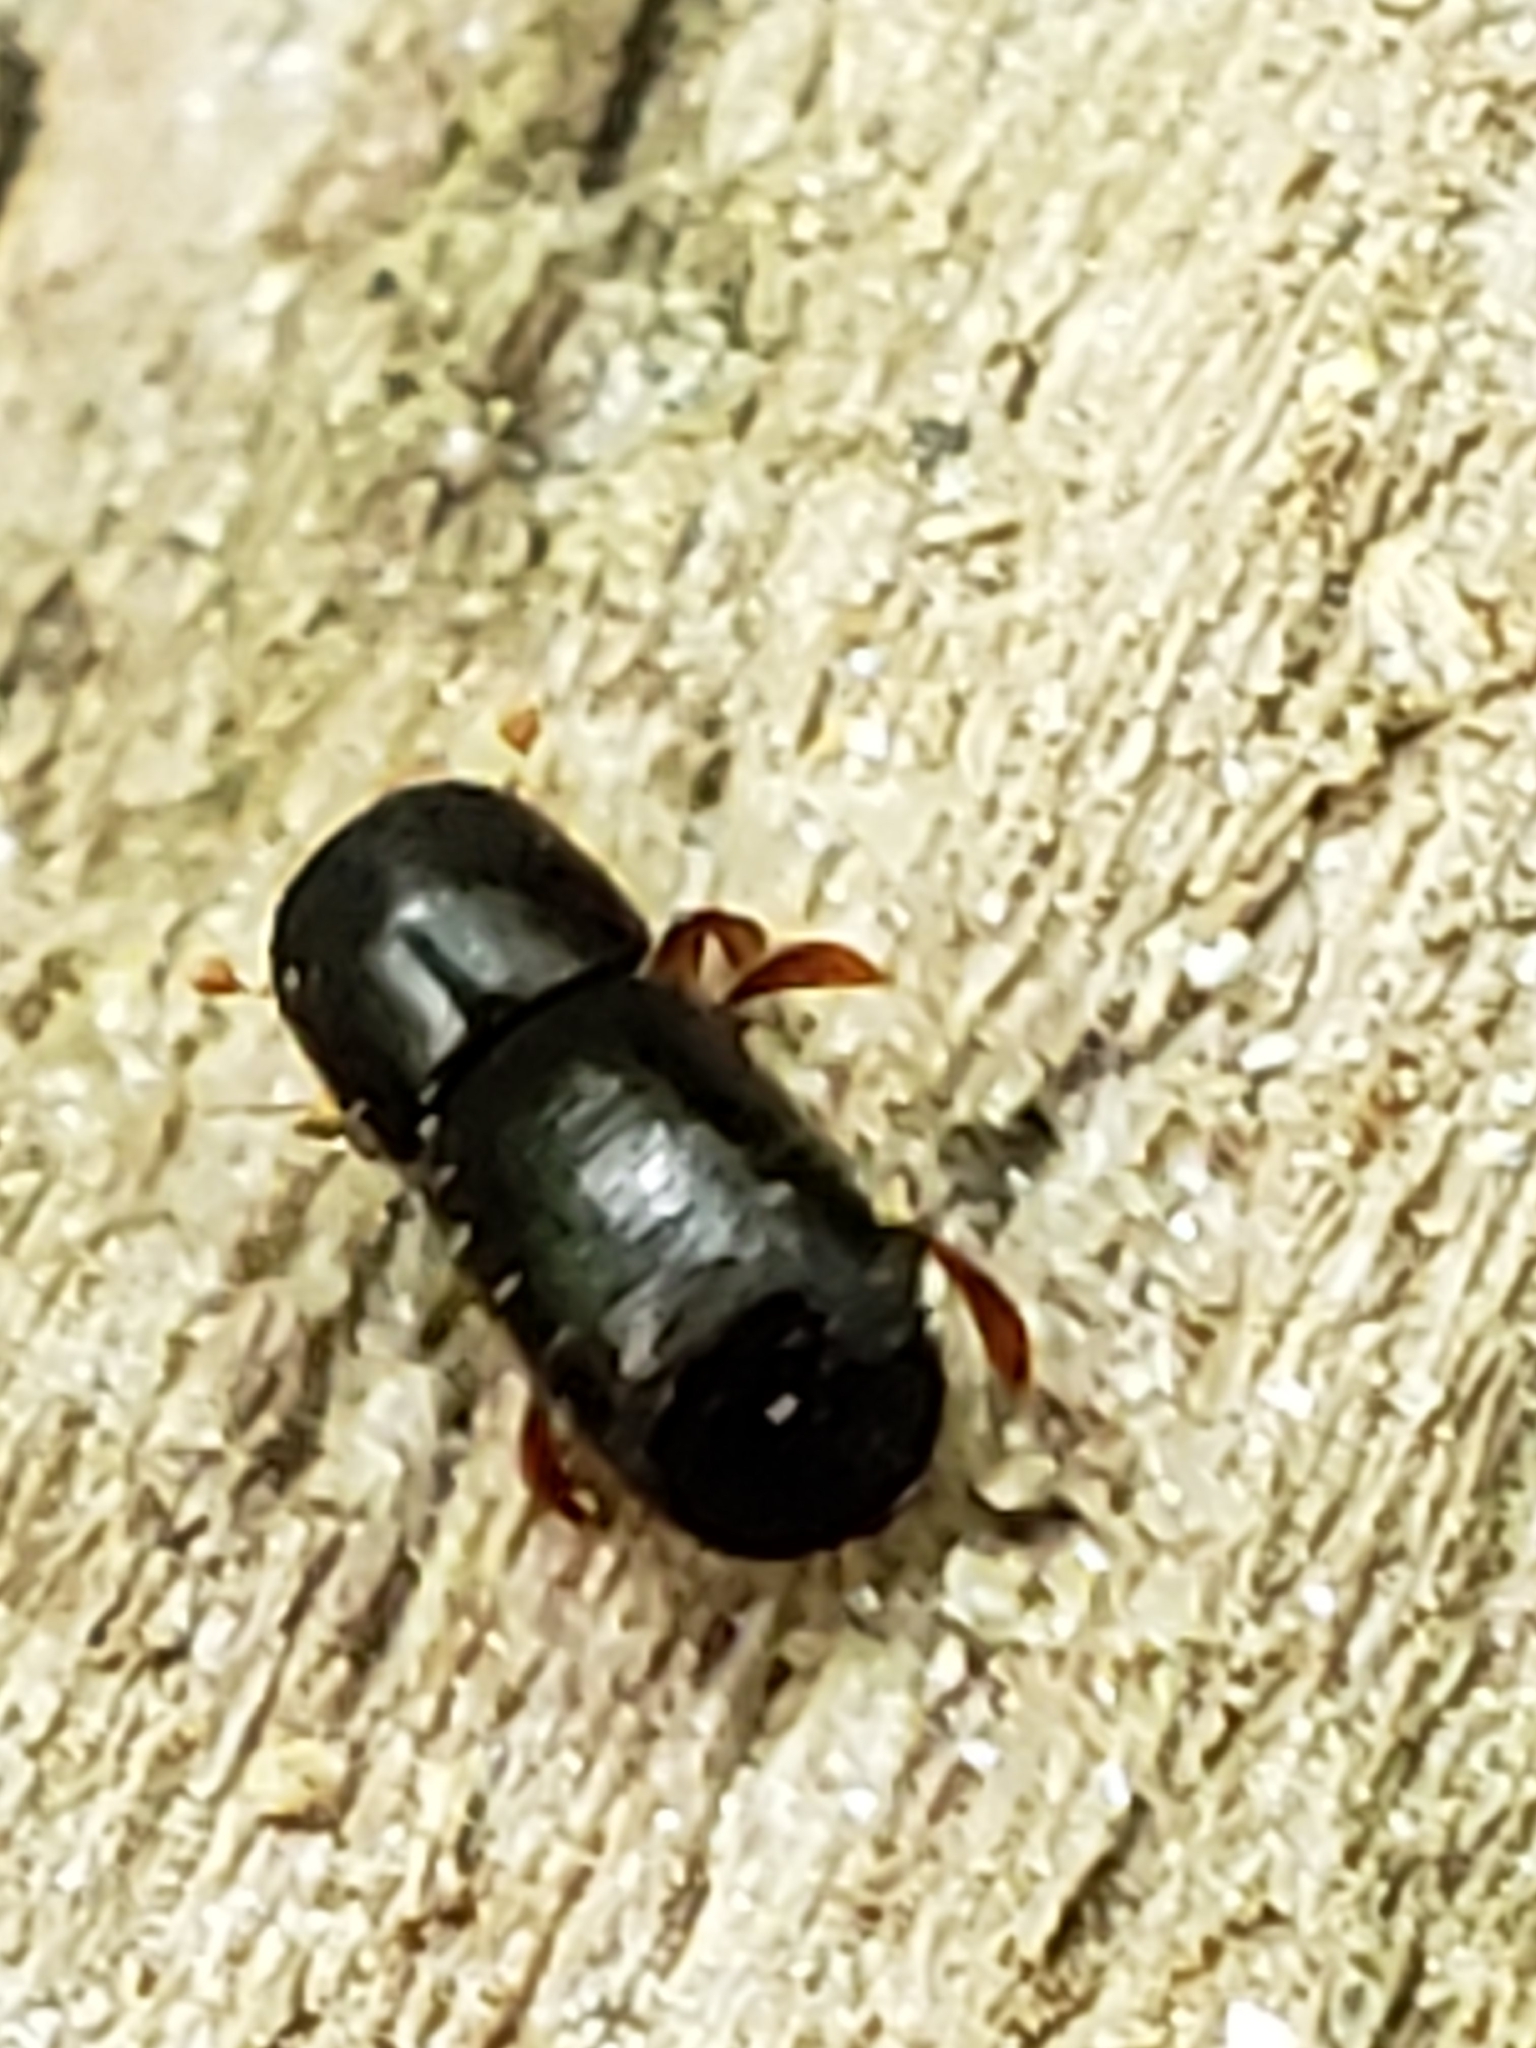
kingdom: Animalia
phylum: Arthropoda
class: Insecta
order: Coleoptera
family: Curculionidae
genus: Euwallacea
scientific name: Euwallacea validus
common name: Bark beetle
